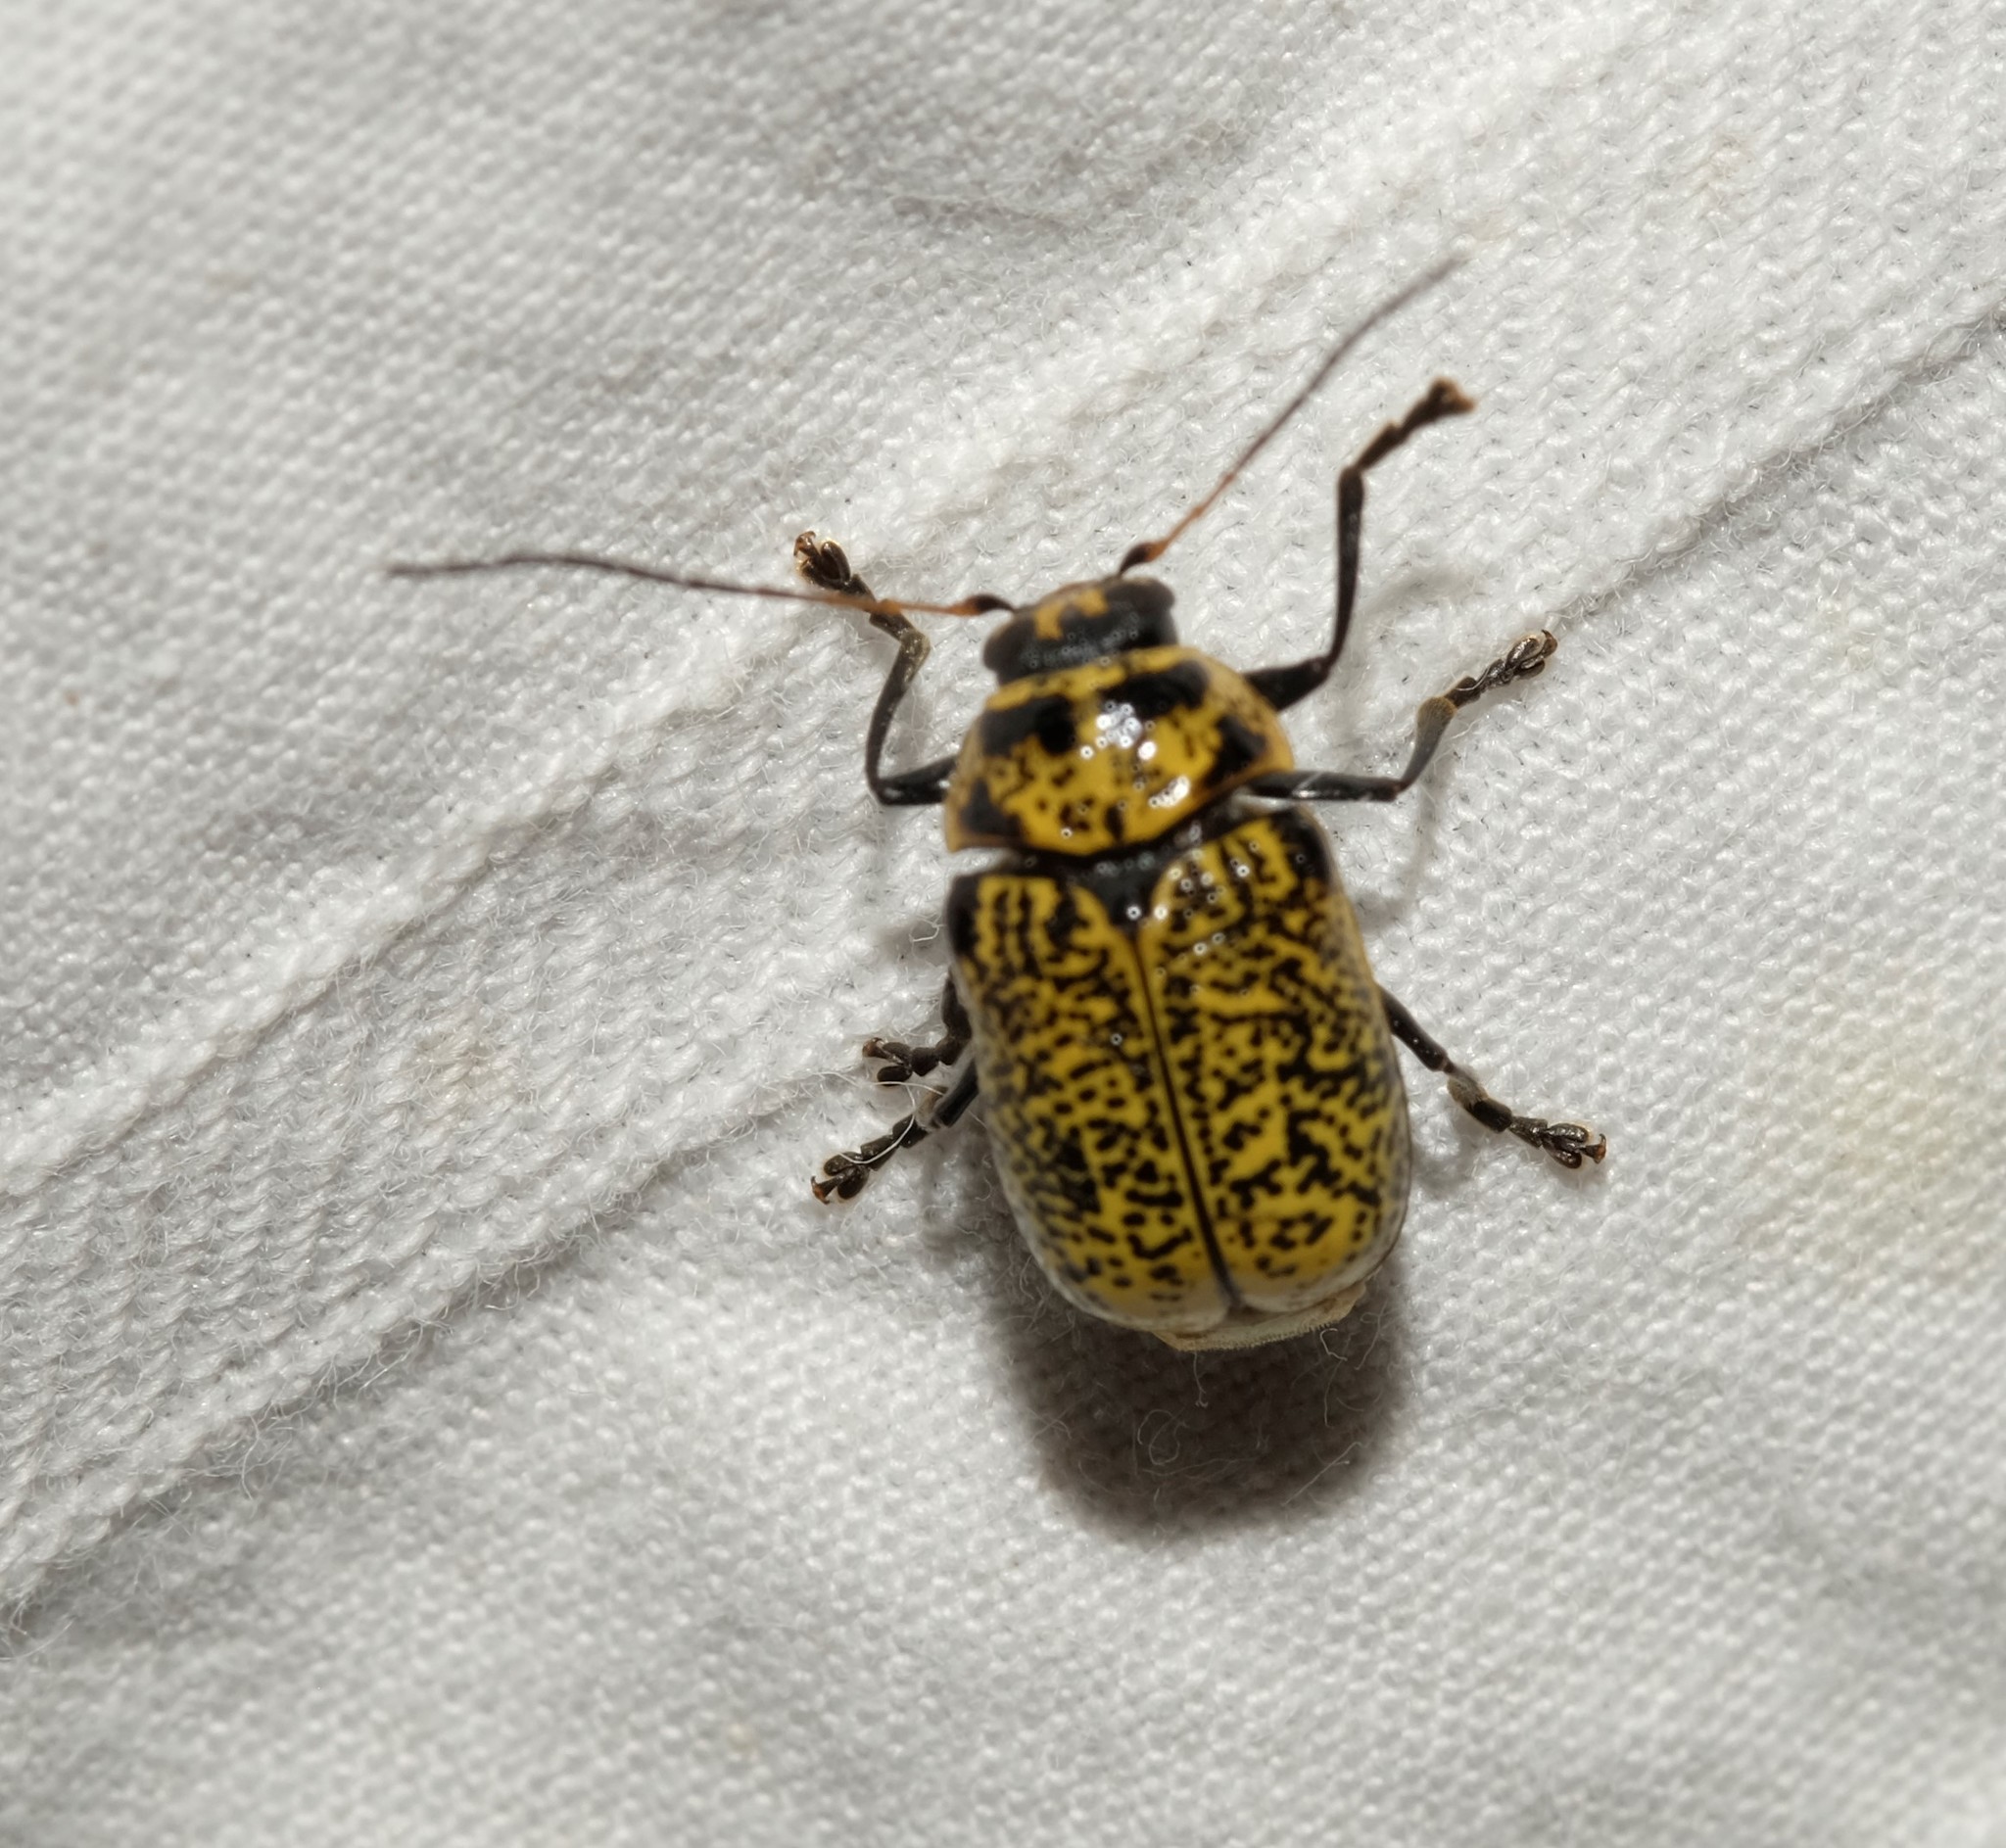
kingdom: Animalia
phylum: Arthropoda
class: Insecta
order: Coleoptera
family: Chrysomelidae
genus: Aporocera
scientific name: Aporocera
